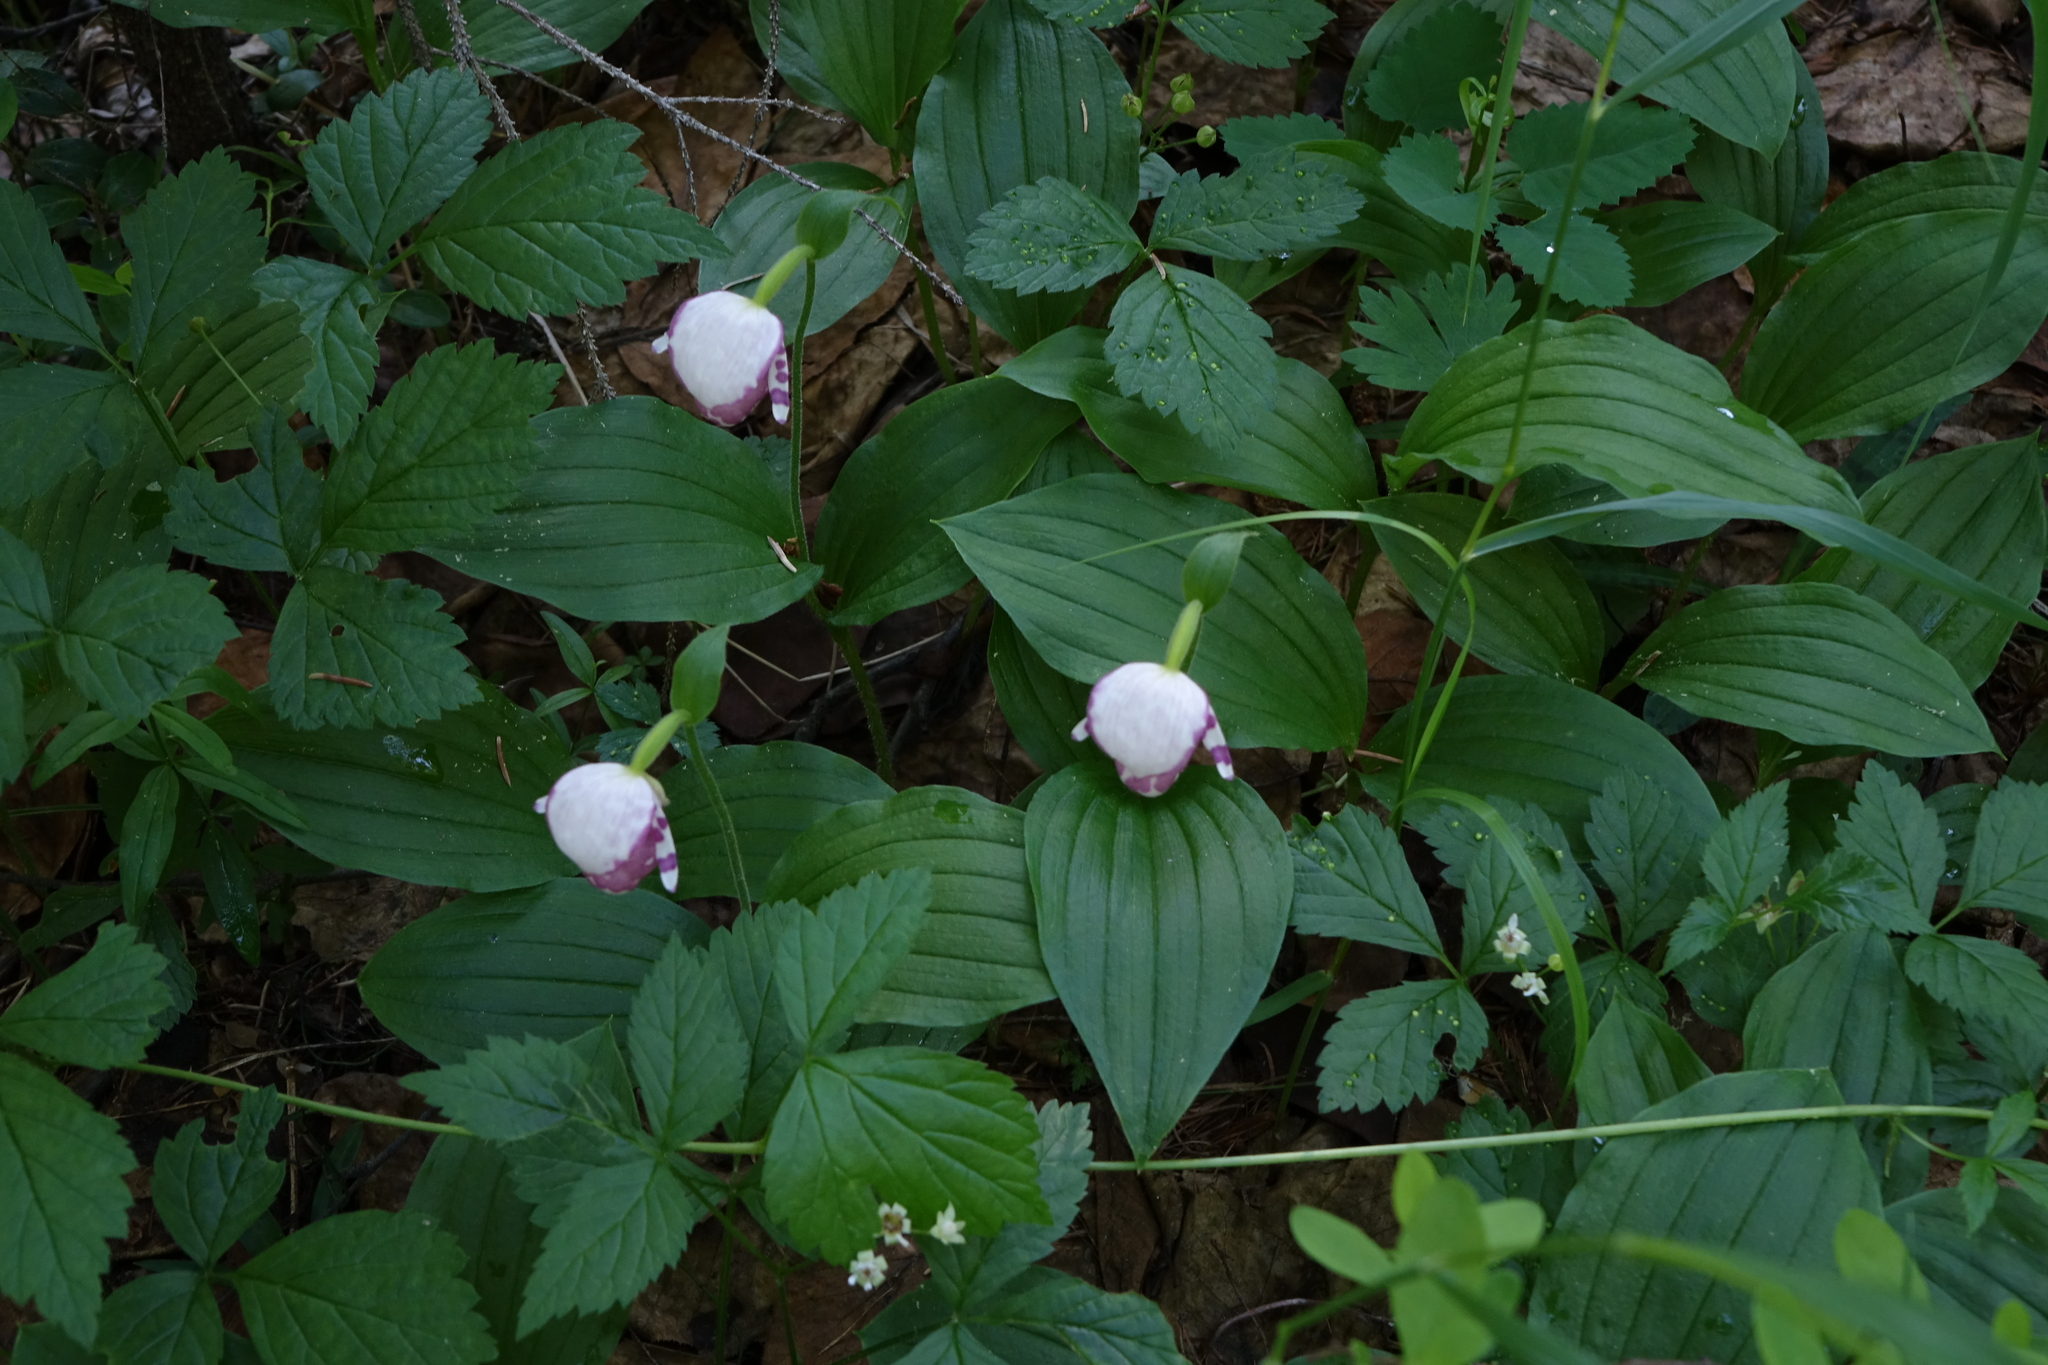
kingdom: Plantae
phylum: Tracheophyta
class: Liliopsida
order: Asparagales
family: Orchidaceae
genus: Cypripedium
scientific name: Cypripedium guttatum
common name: Pink lady slipper
